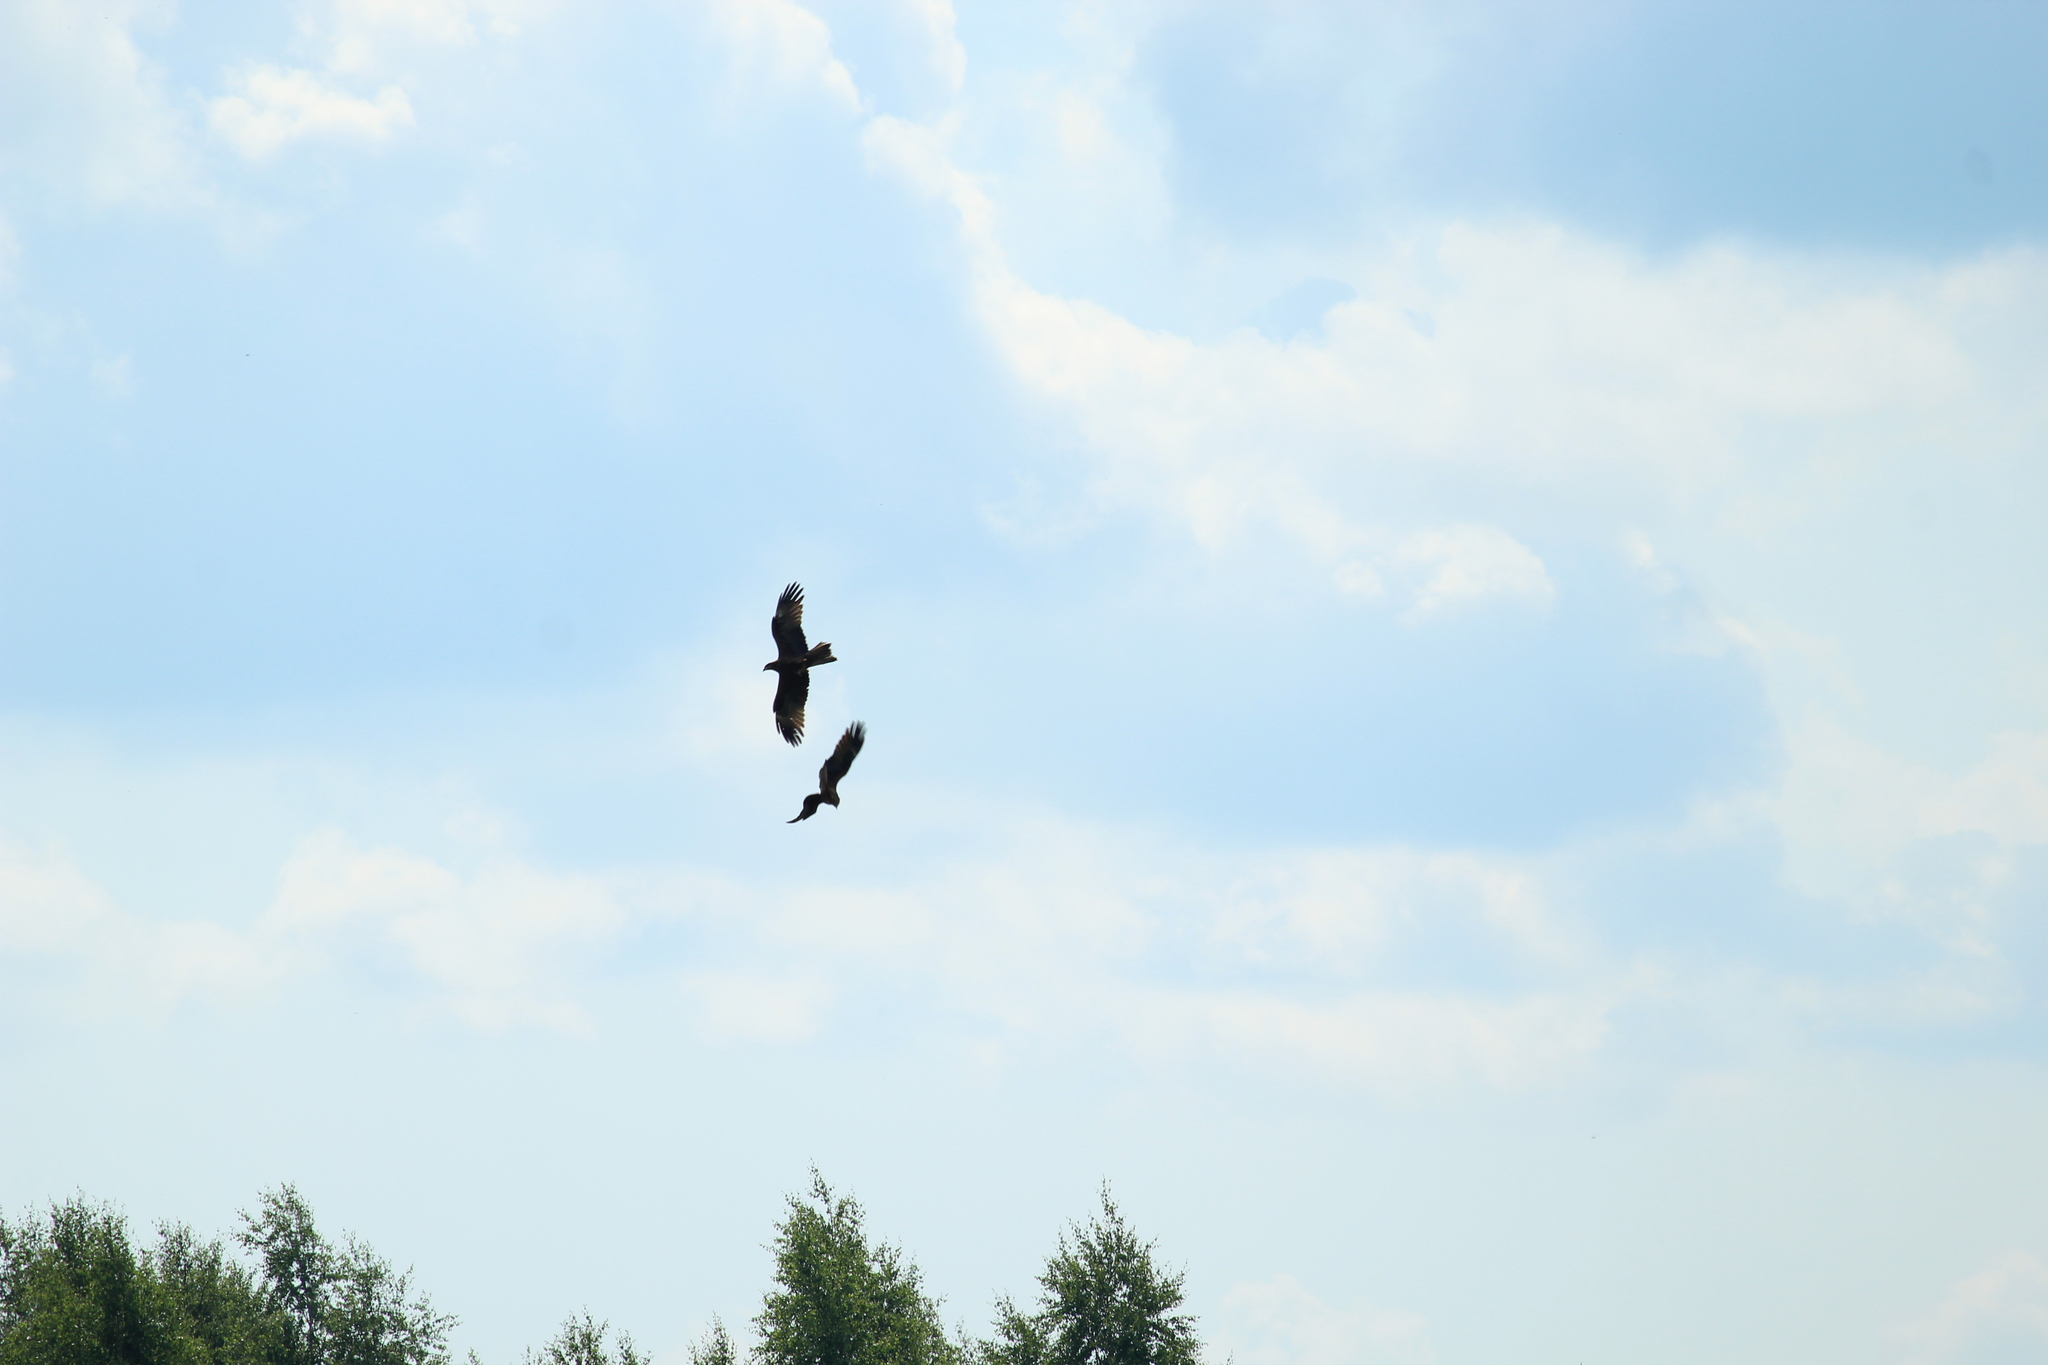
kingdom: Animalia
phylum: Chordata
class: Aves
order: Accipitriformes
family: Accipitridae
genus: Milvus
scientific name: Milvus migrans
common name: Black kite
